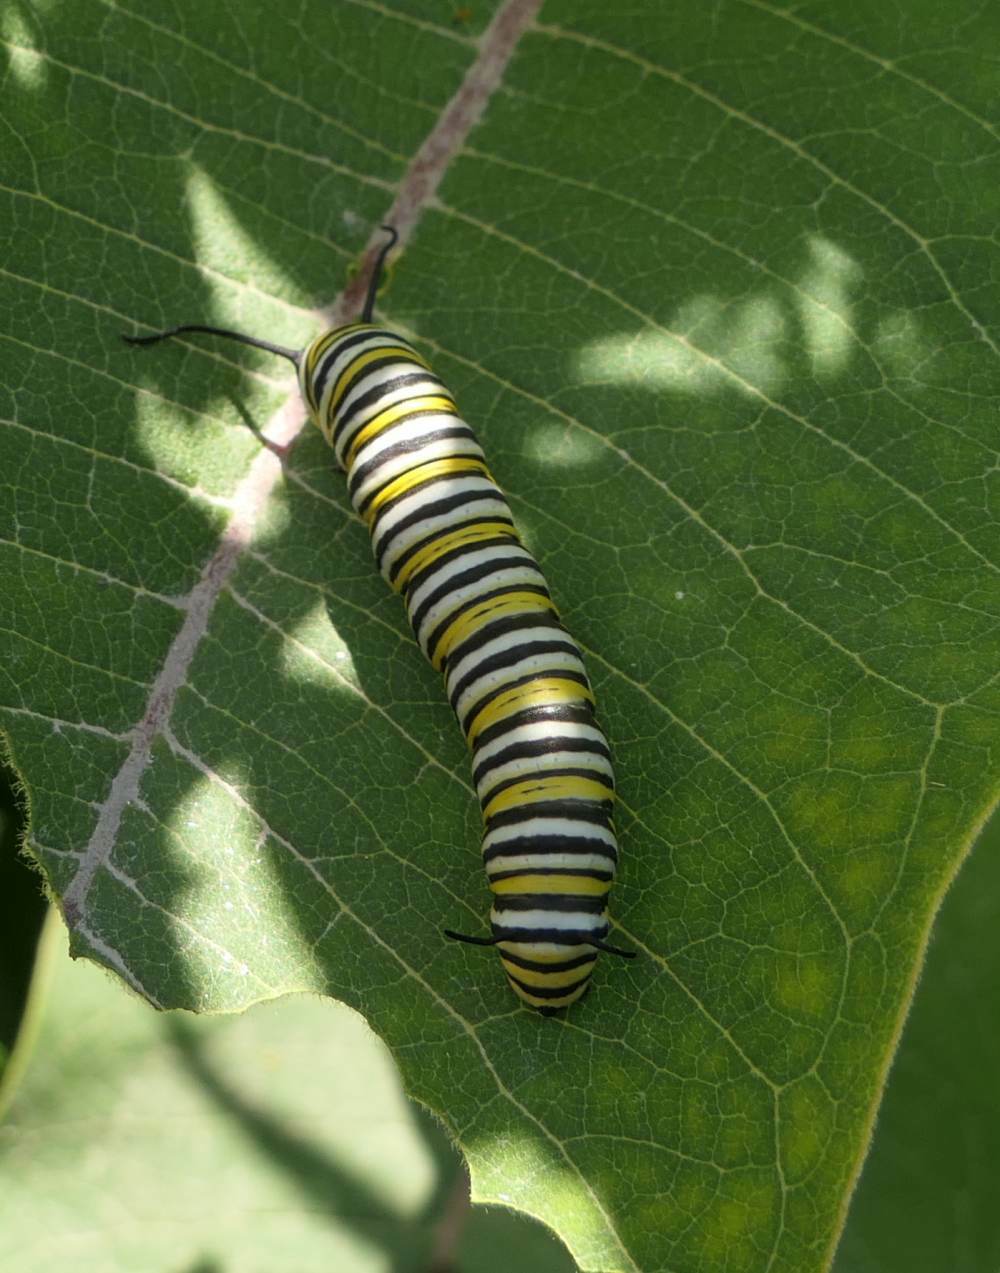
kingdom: Animalia
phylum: Arthropoda
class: Insecta
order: Lepidoptera
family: Nymphalidae
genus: Danaus
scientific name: Danaus plexippus
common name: Monarch
